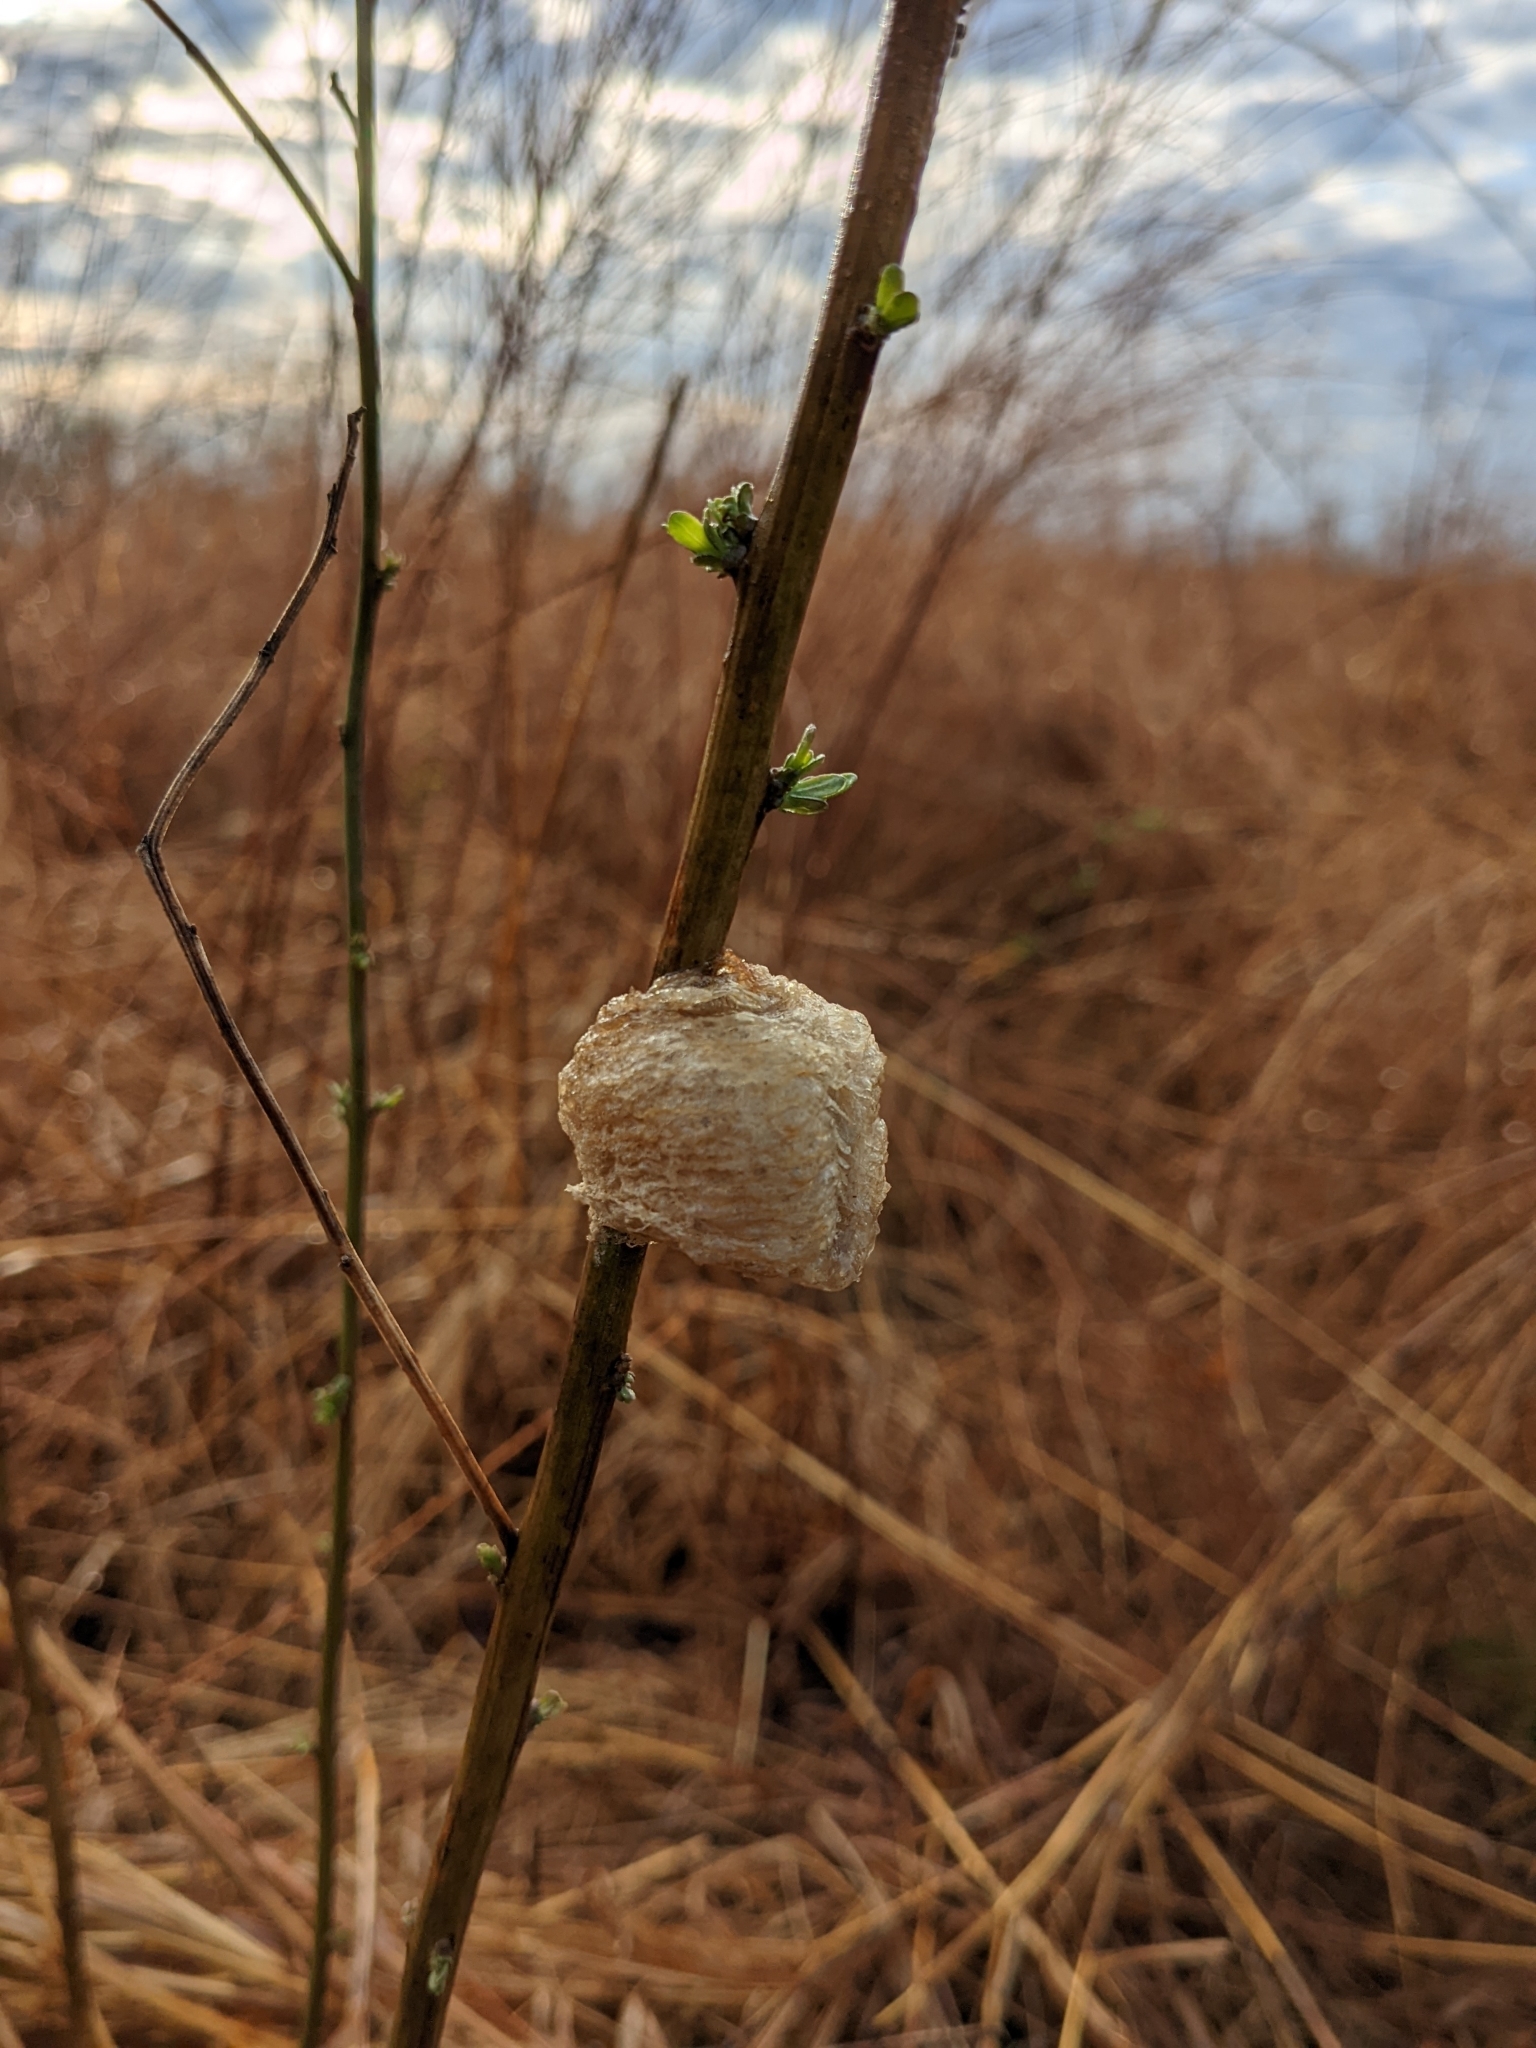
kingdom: Animalia
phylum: Arthropoda
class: Insecta
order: Mantodea
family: Mantidae
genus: Tenodera
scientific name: Tenodera sinensis
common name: Chinese mantis
